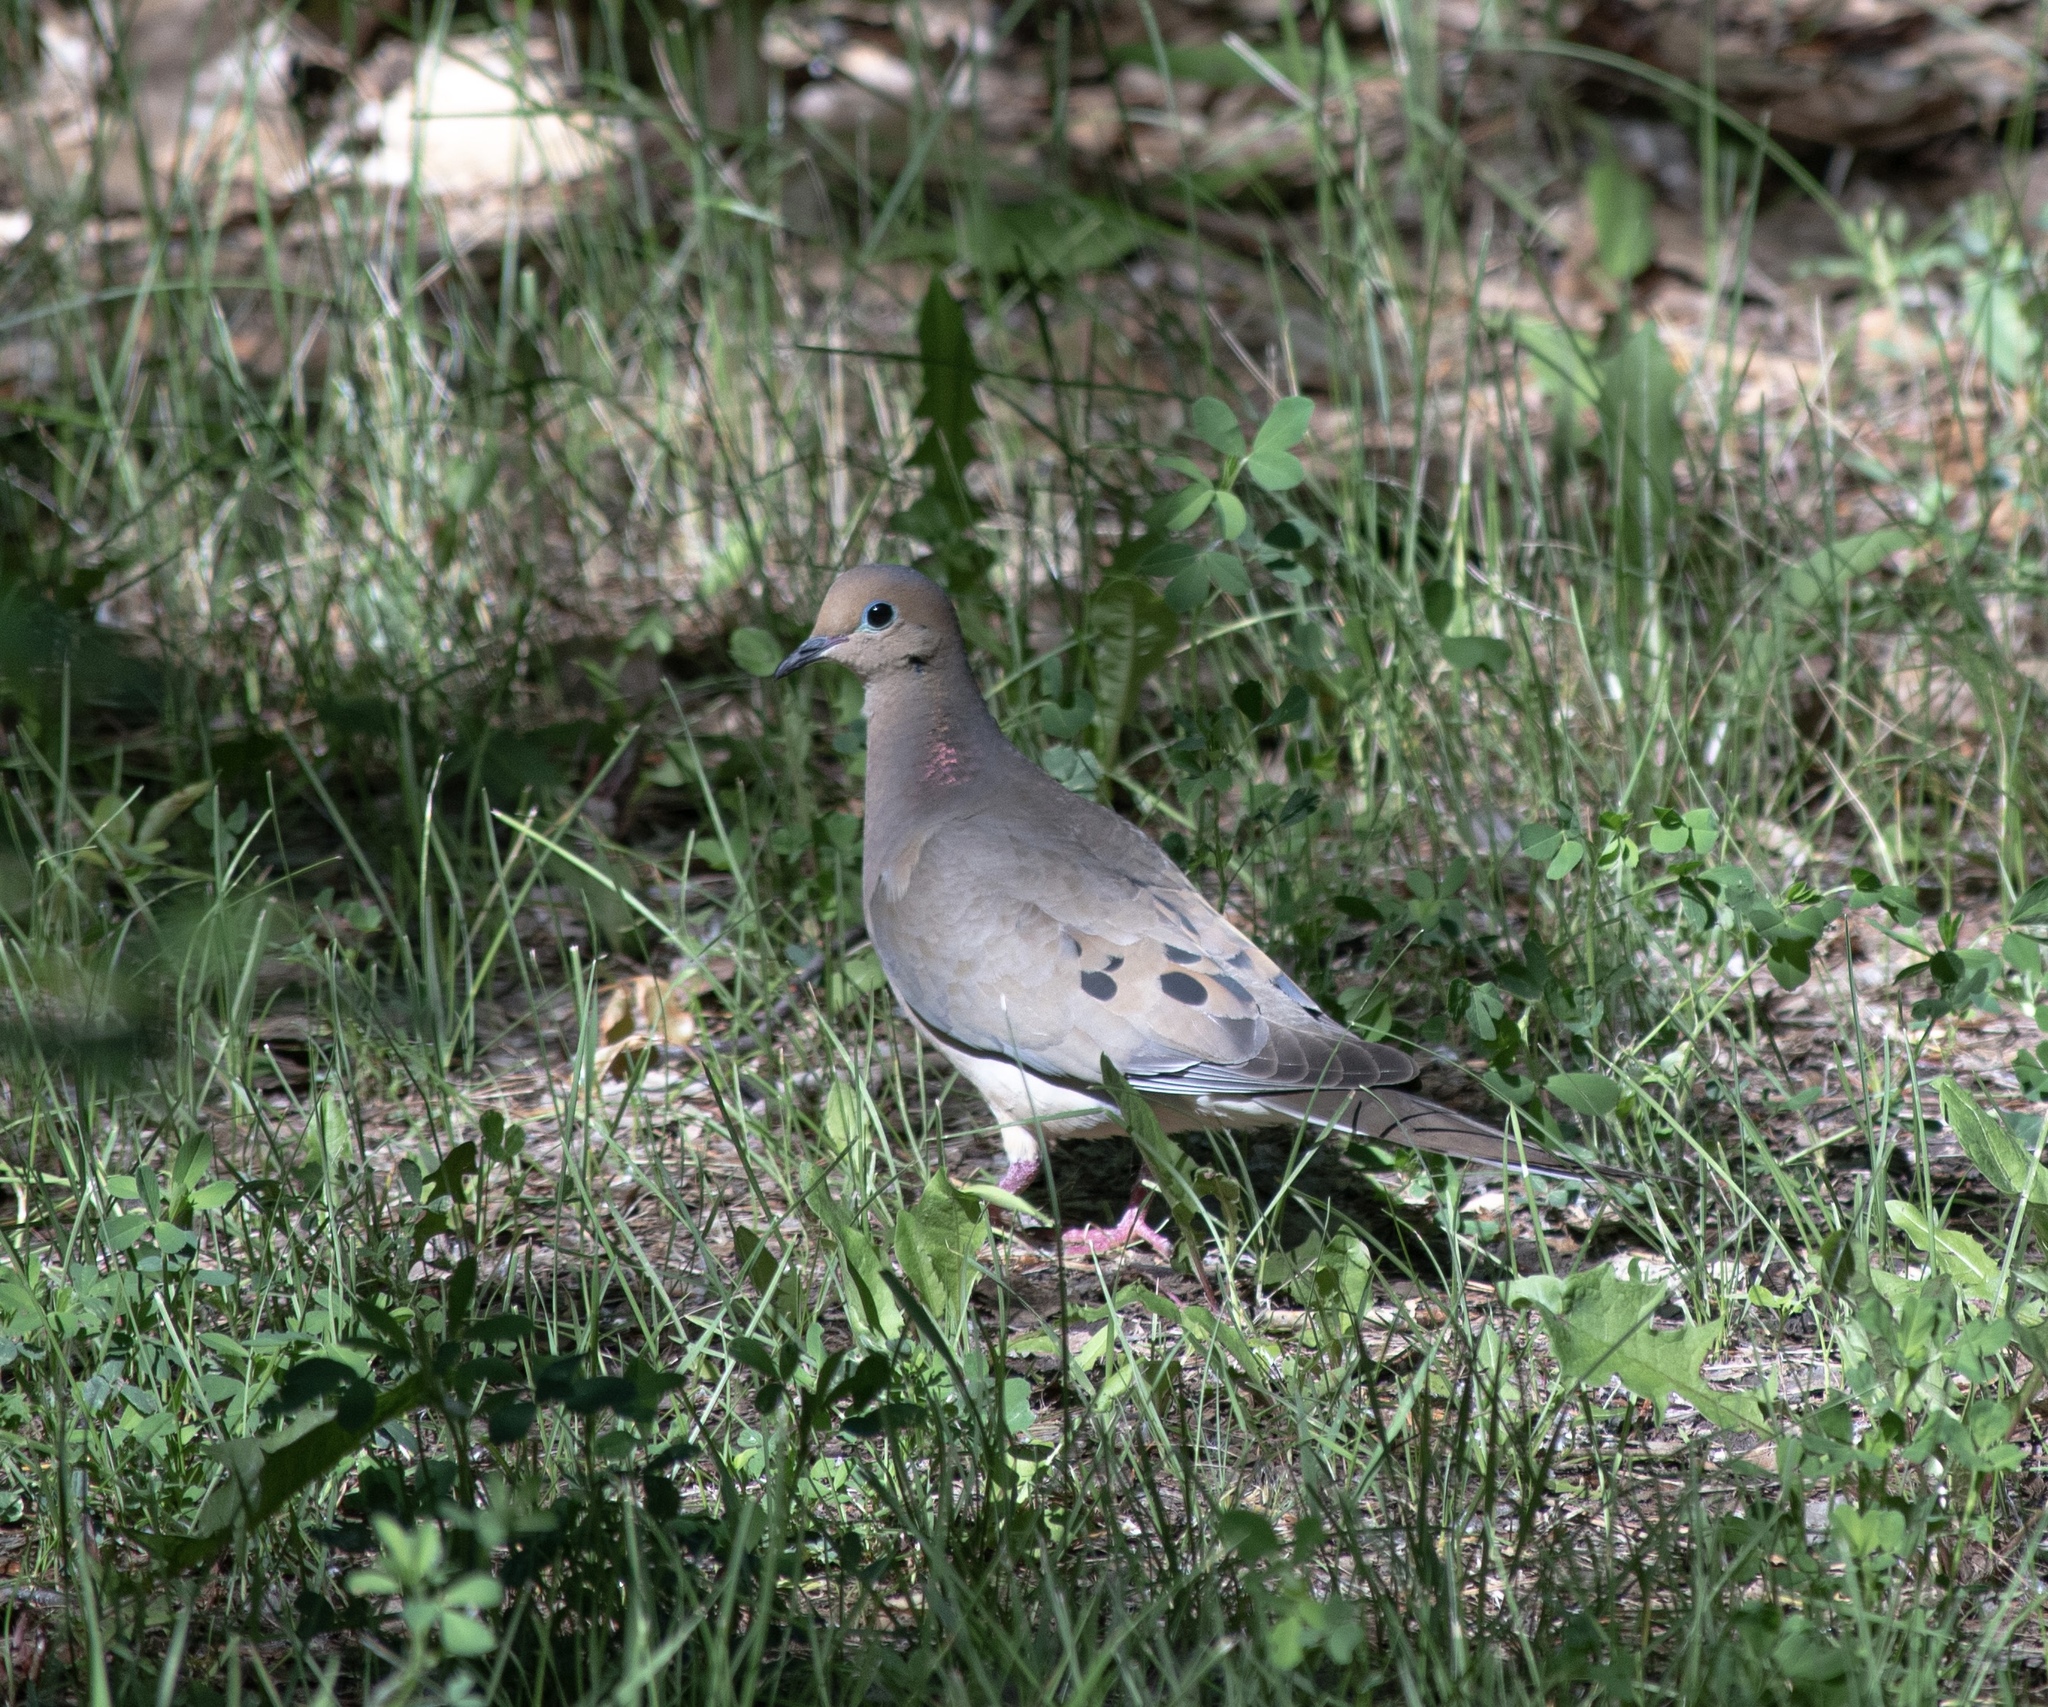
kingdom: Animalia
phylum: Chordata
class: Aves
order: Columbiformes
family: Columbidae
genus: Zenaida
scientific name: Zenaida macroura
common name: Mourning dove
